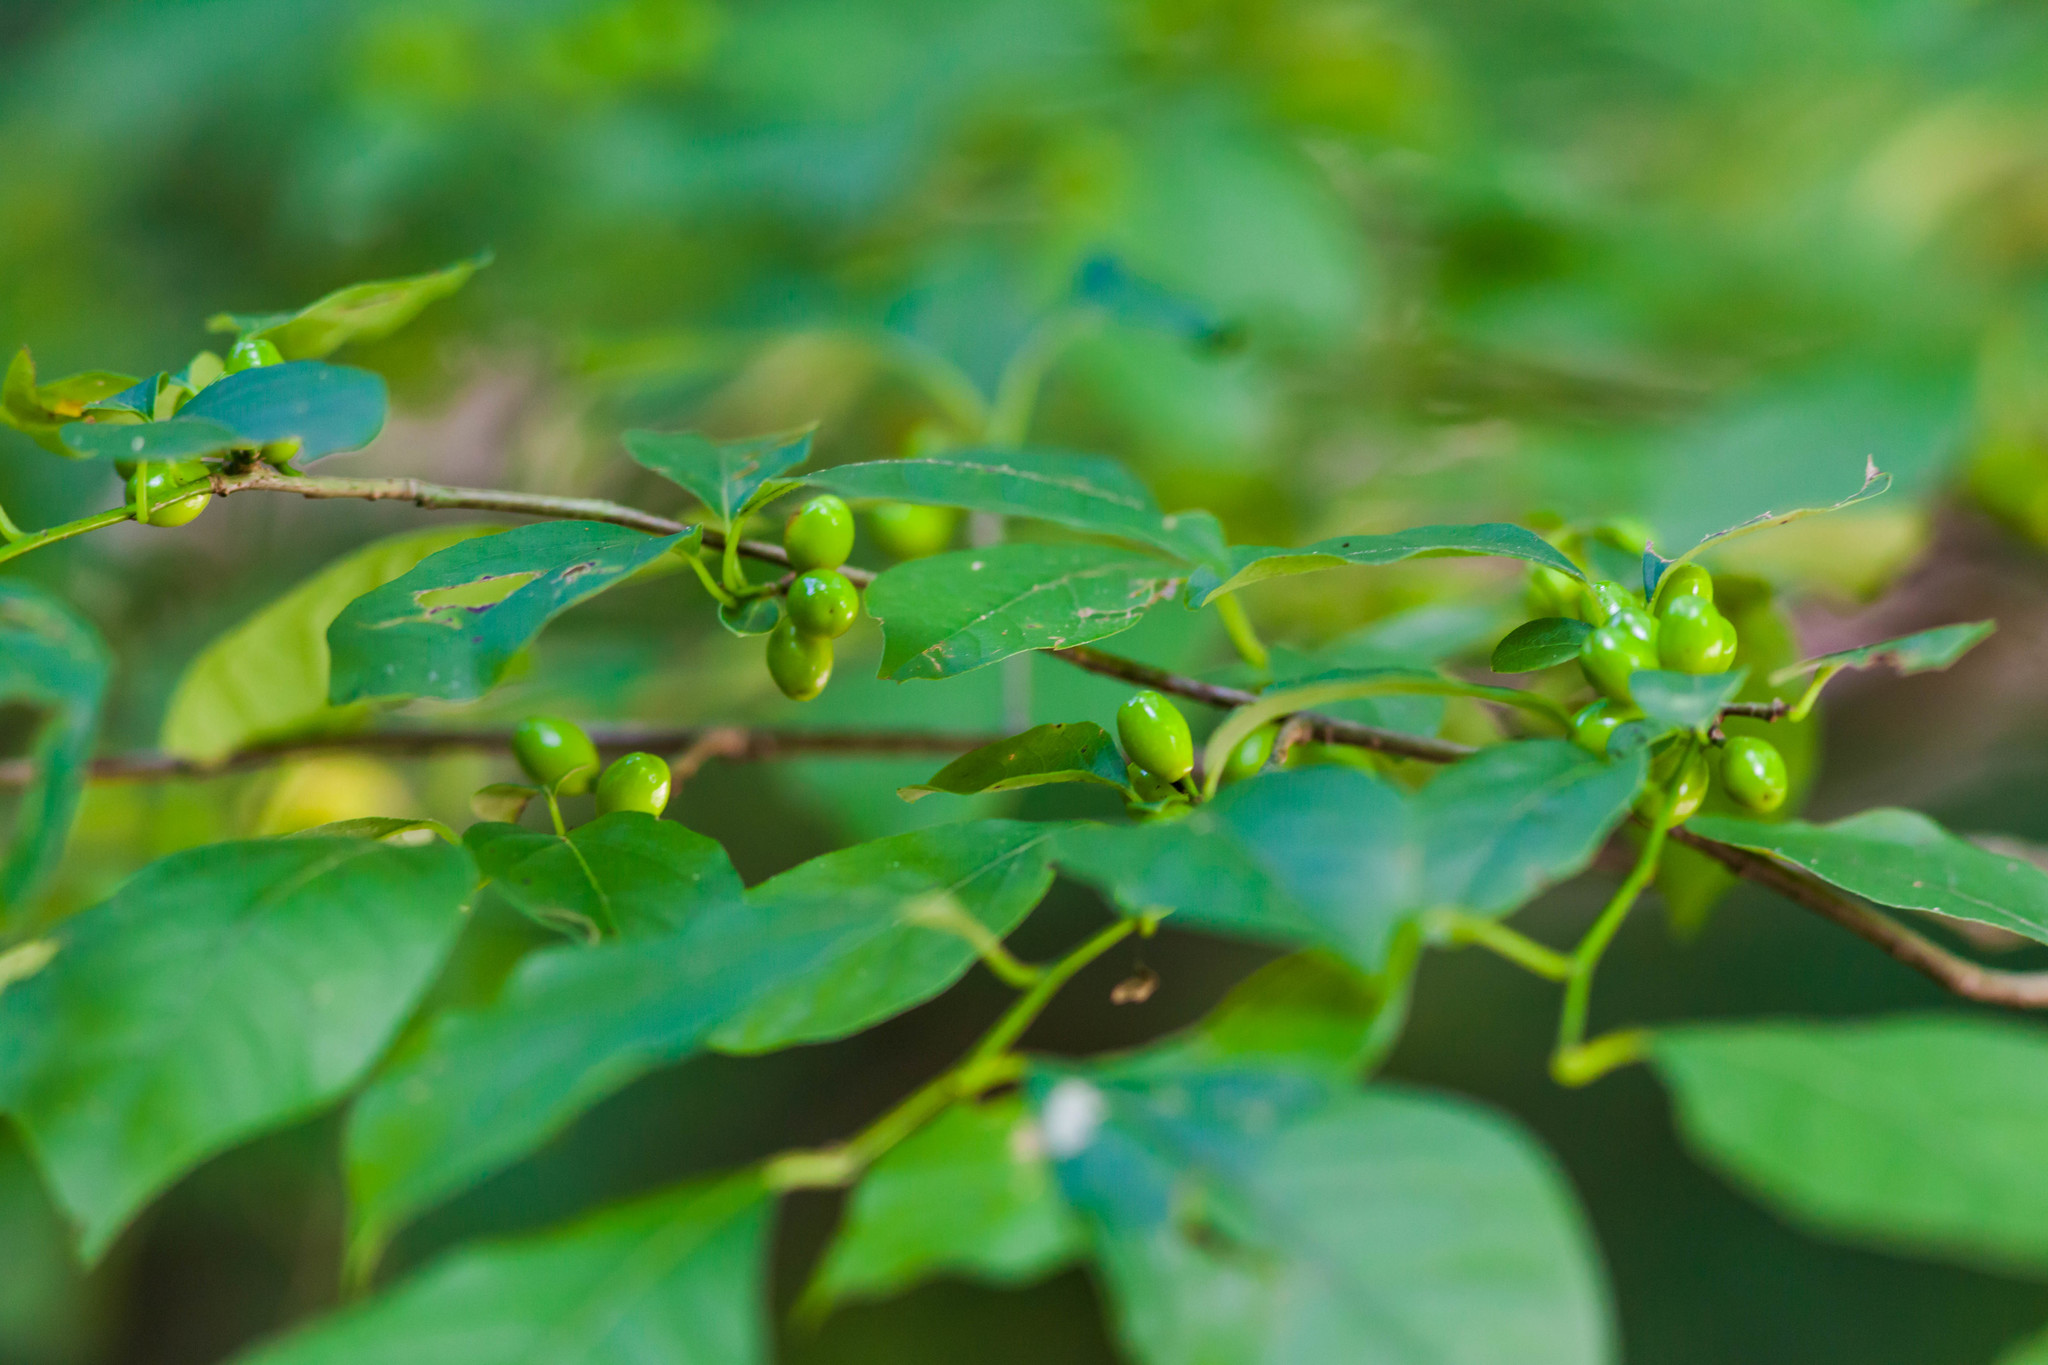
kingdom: Plantae
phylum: Tracheophyta
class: Magnoliopsida
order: Laurales
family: Lauraceae
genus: Lindera
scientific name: Lindera benzoin
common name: Spicebush
